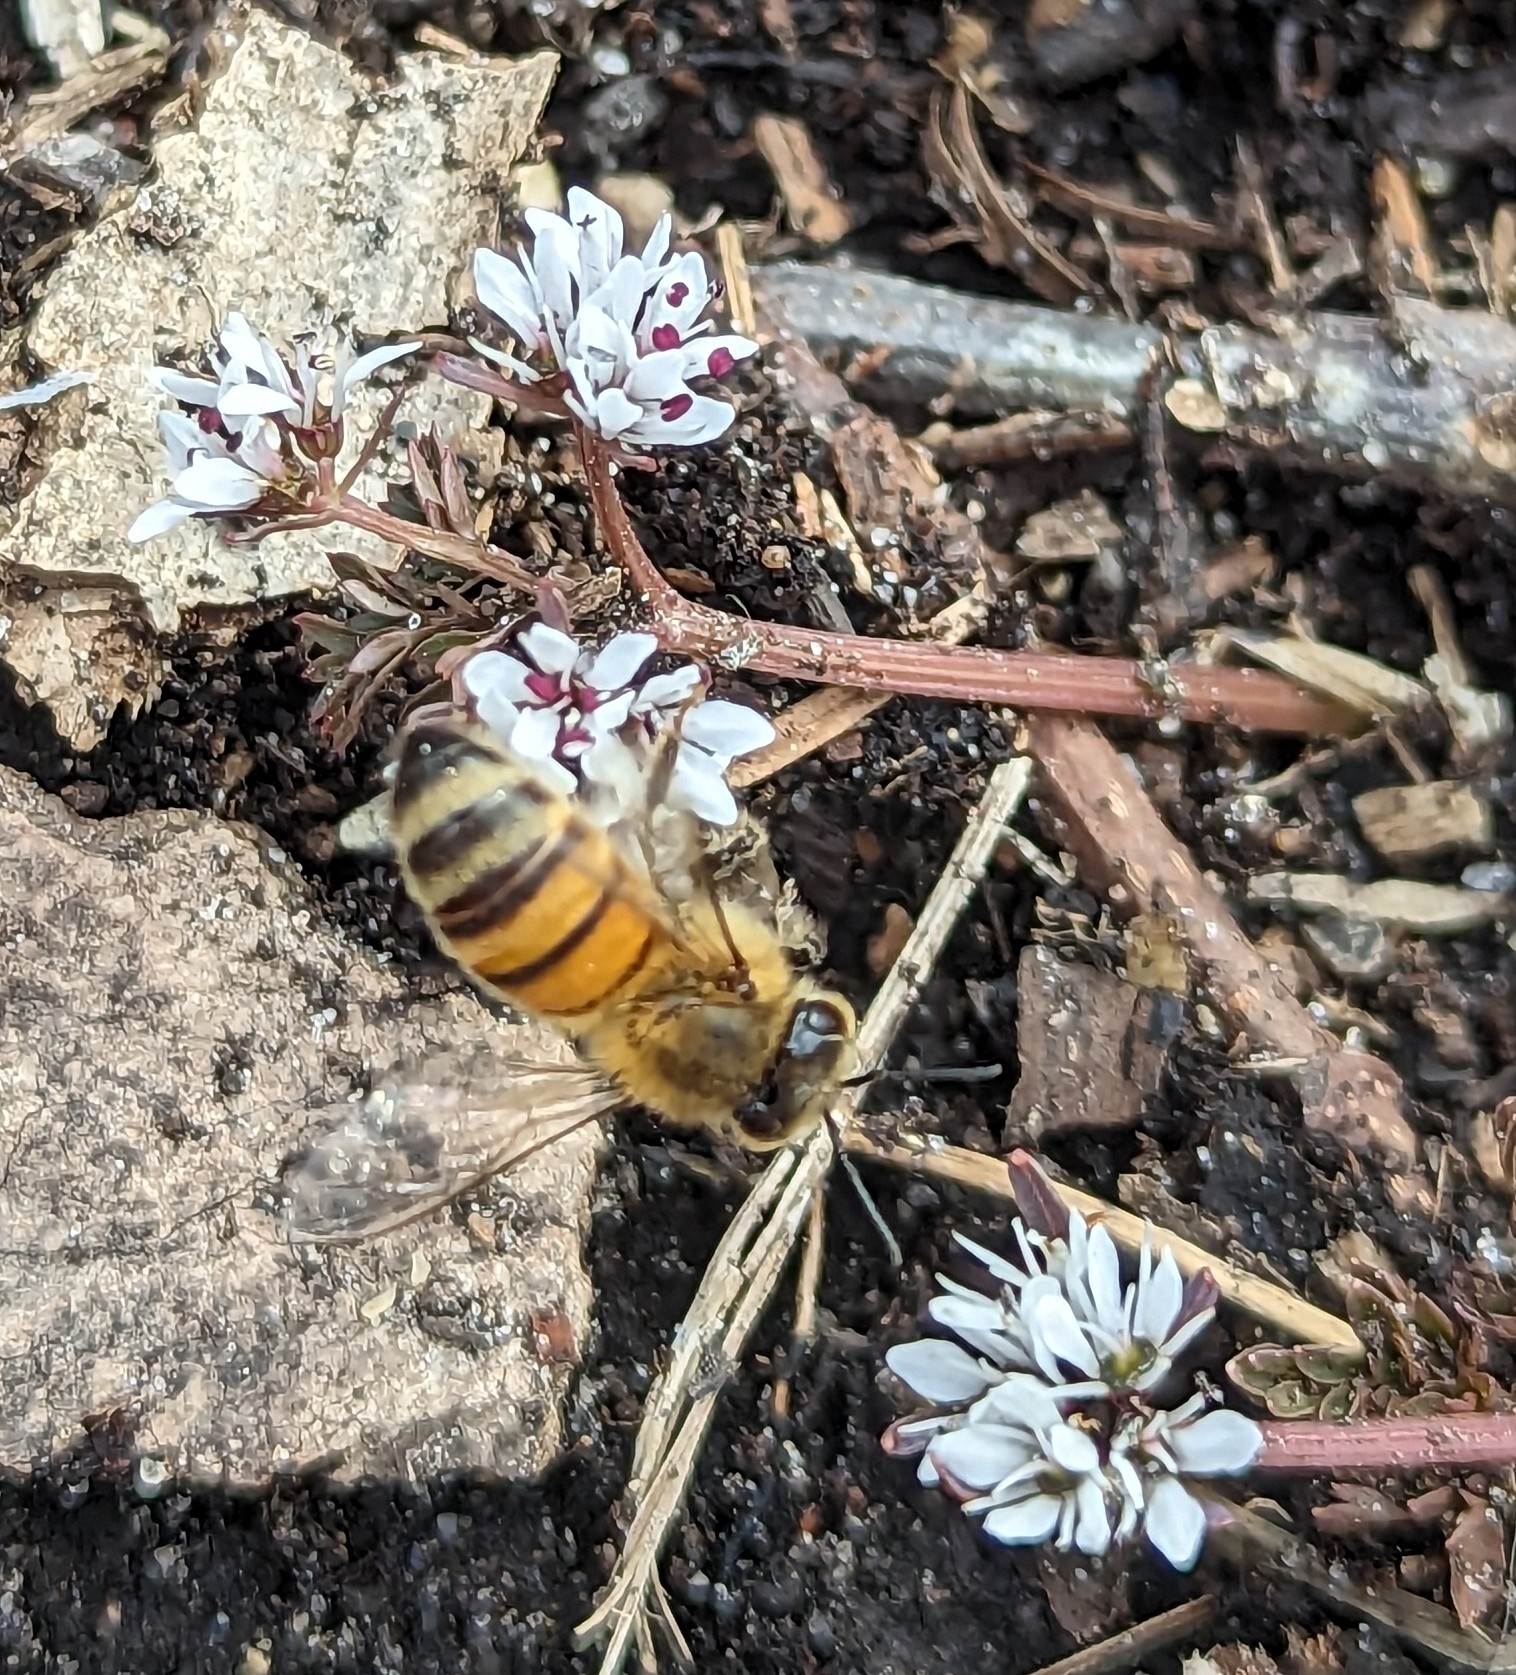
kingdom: Animalia
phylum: Arthropoda
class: Insecta
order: Hymenoptera
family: Apidae
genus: Apis
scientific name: Apis mellifera
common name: Honey bee
